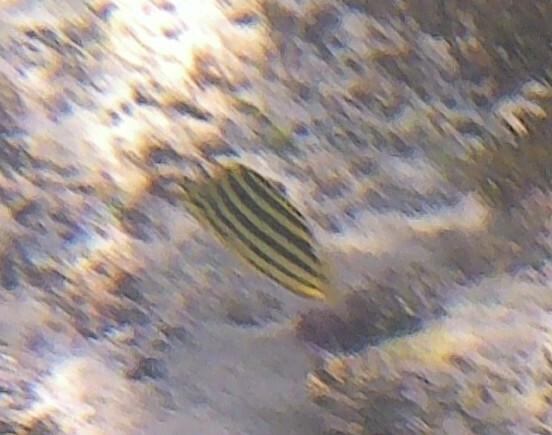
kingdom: Animalia
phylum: Chordata
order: Perciformes
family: Kyphosidae
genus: Microcanthus
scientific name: Microcanthus joyceae
